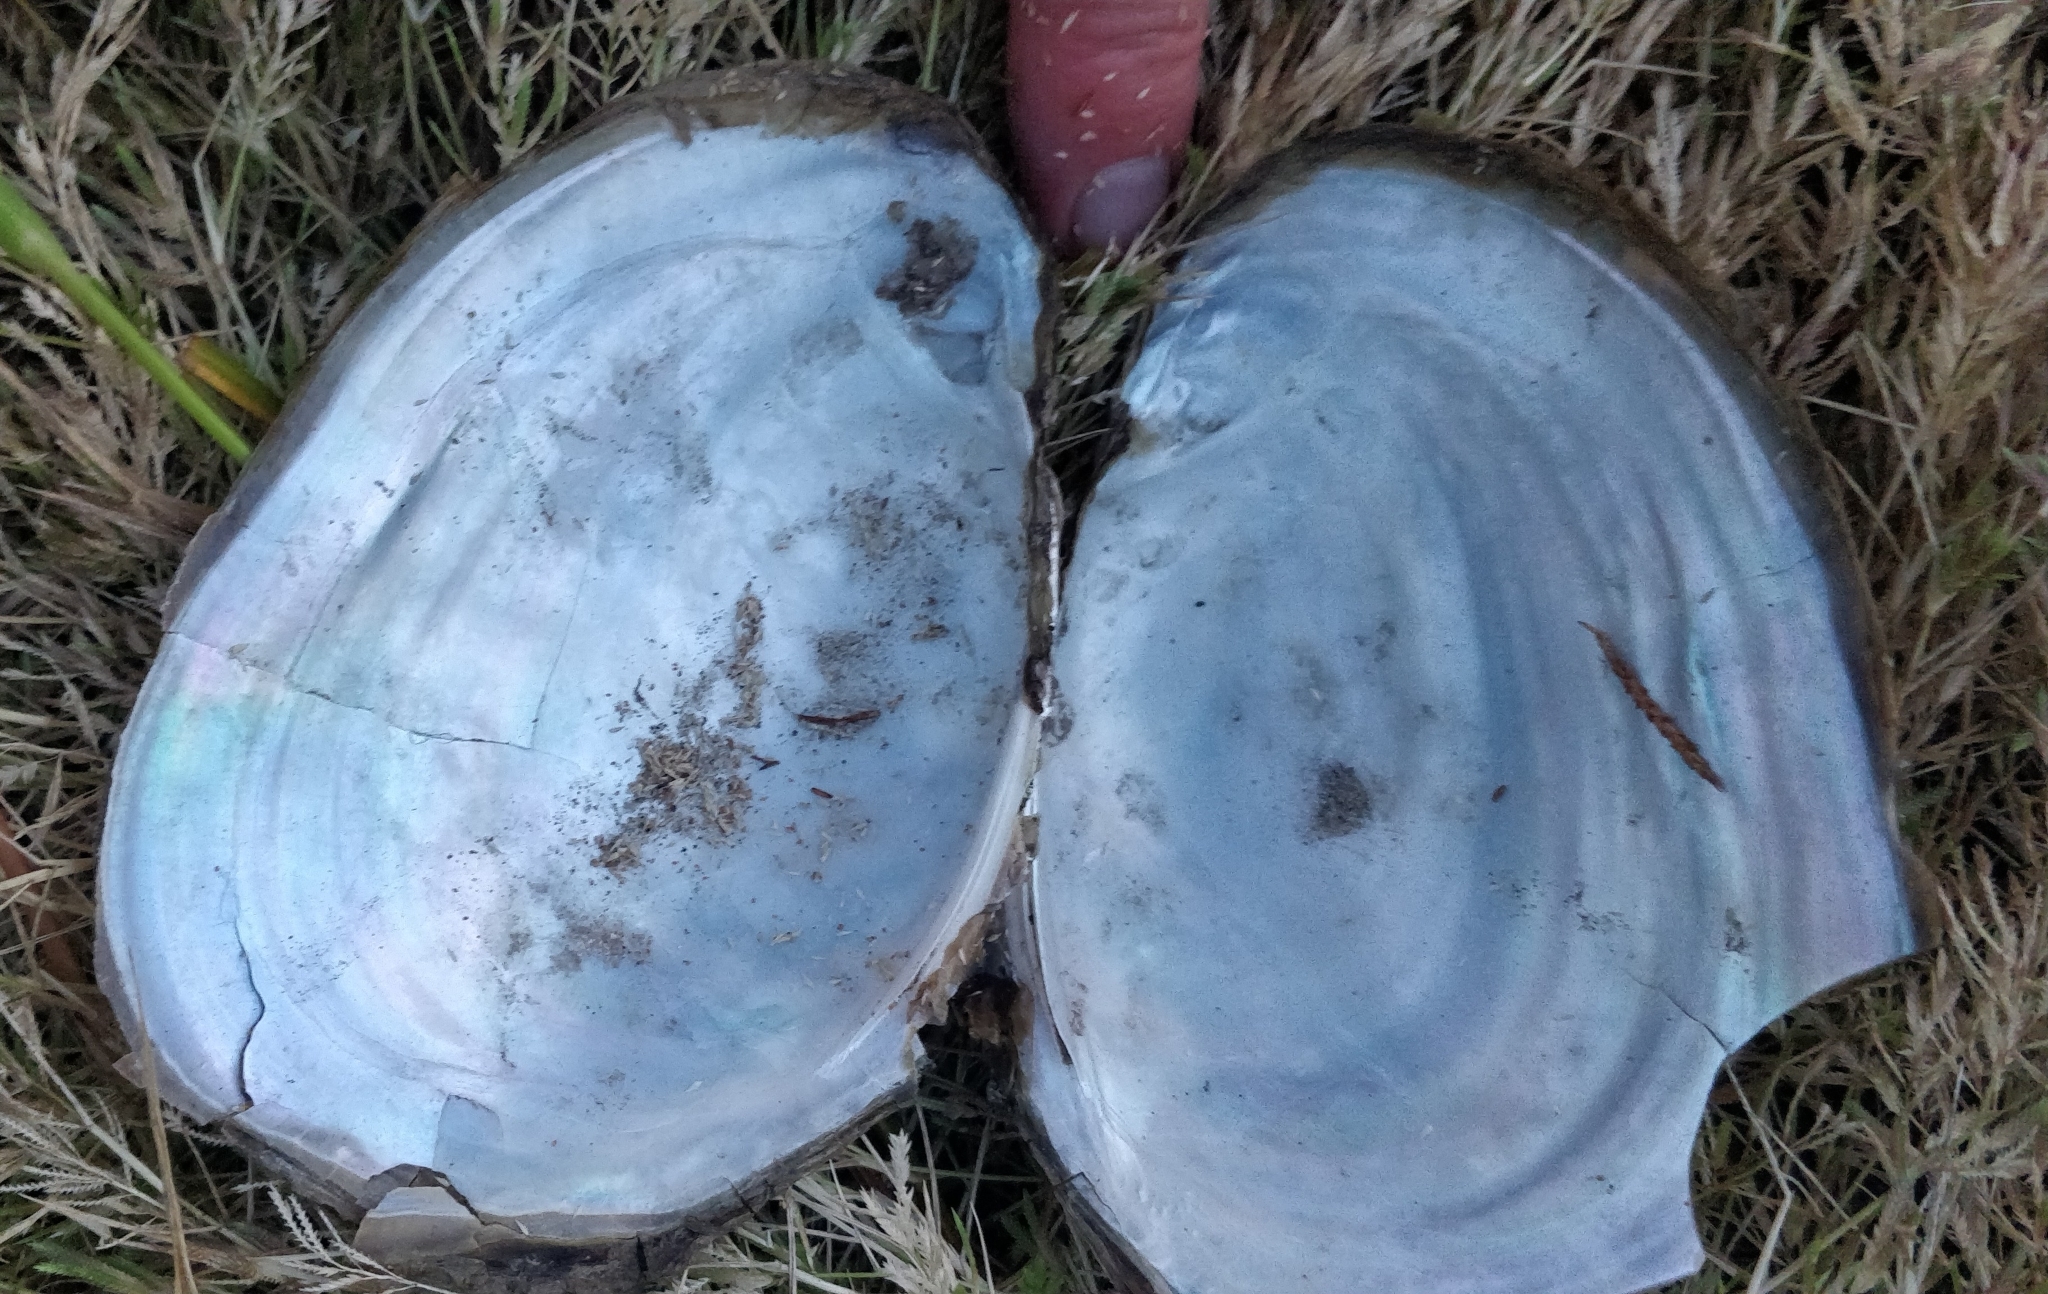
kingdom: Animalia
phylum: Mollusca
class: Bivalvia
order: Unionida
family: Unionidae
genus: Potamilus
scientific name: Potamilus fragilis
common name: Fragile papershell
